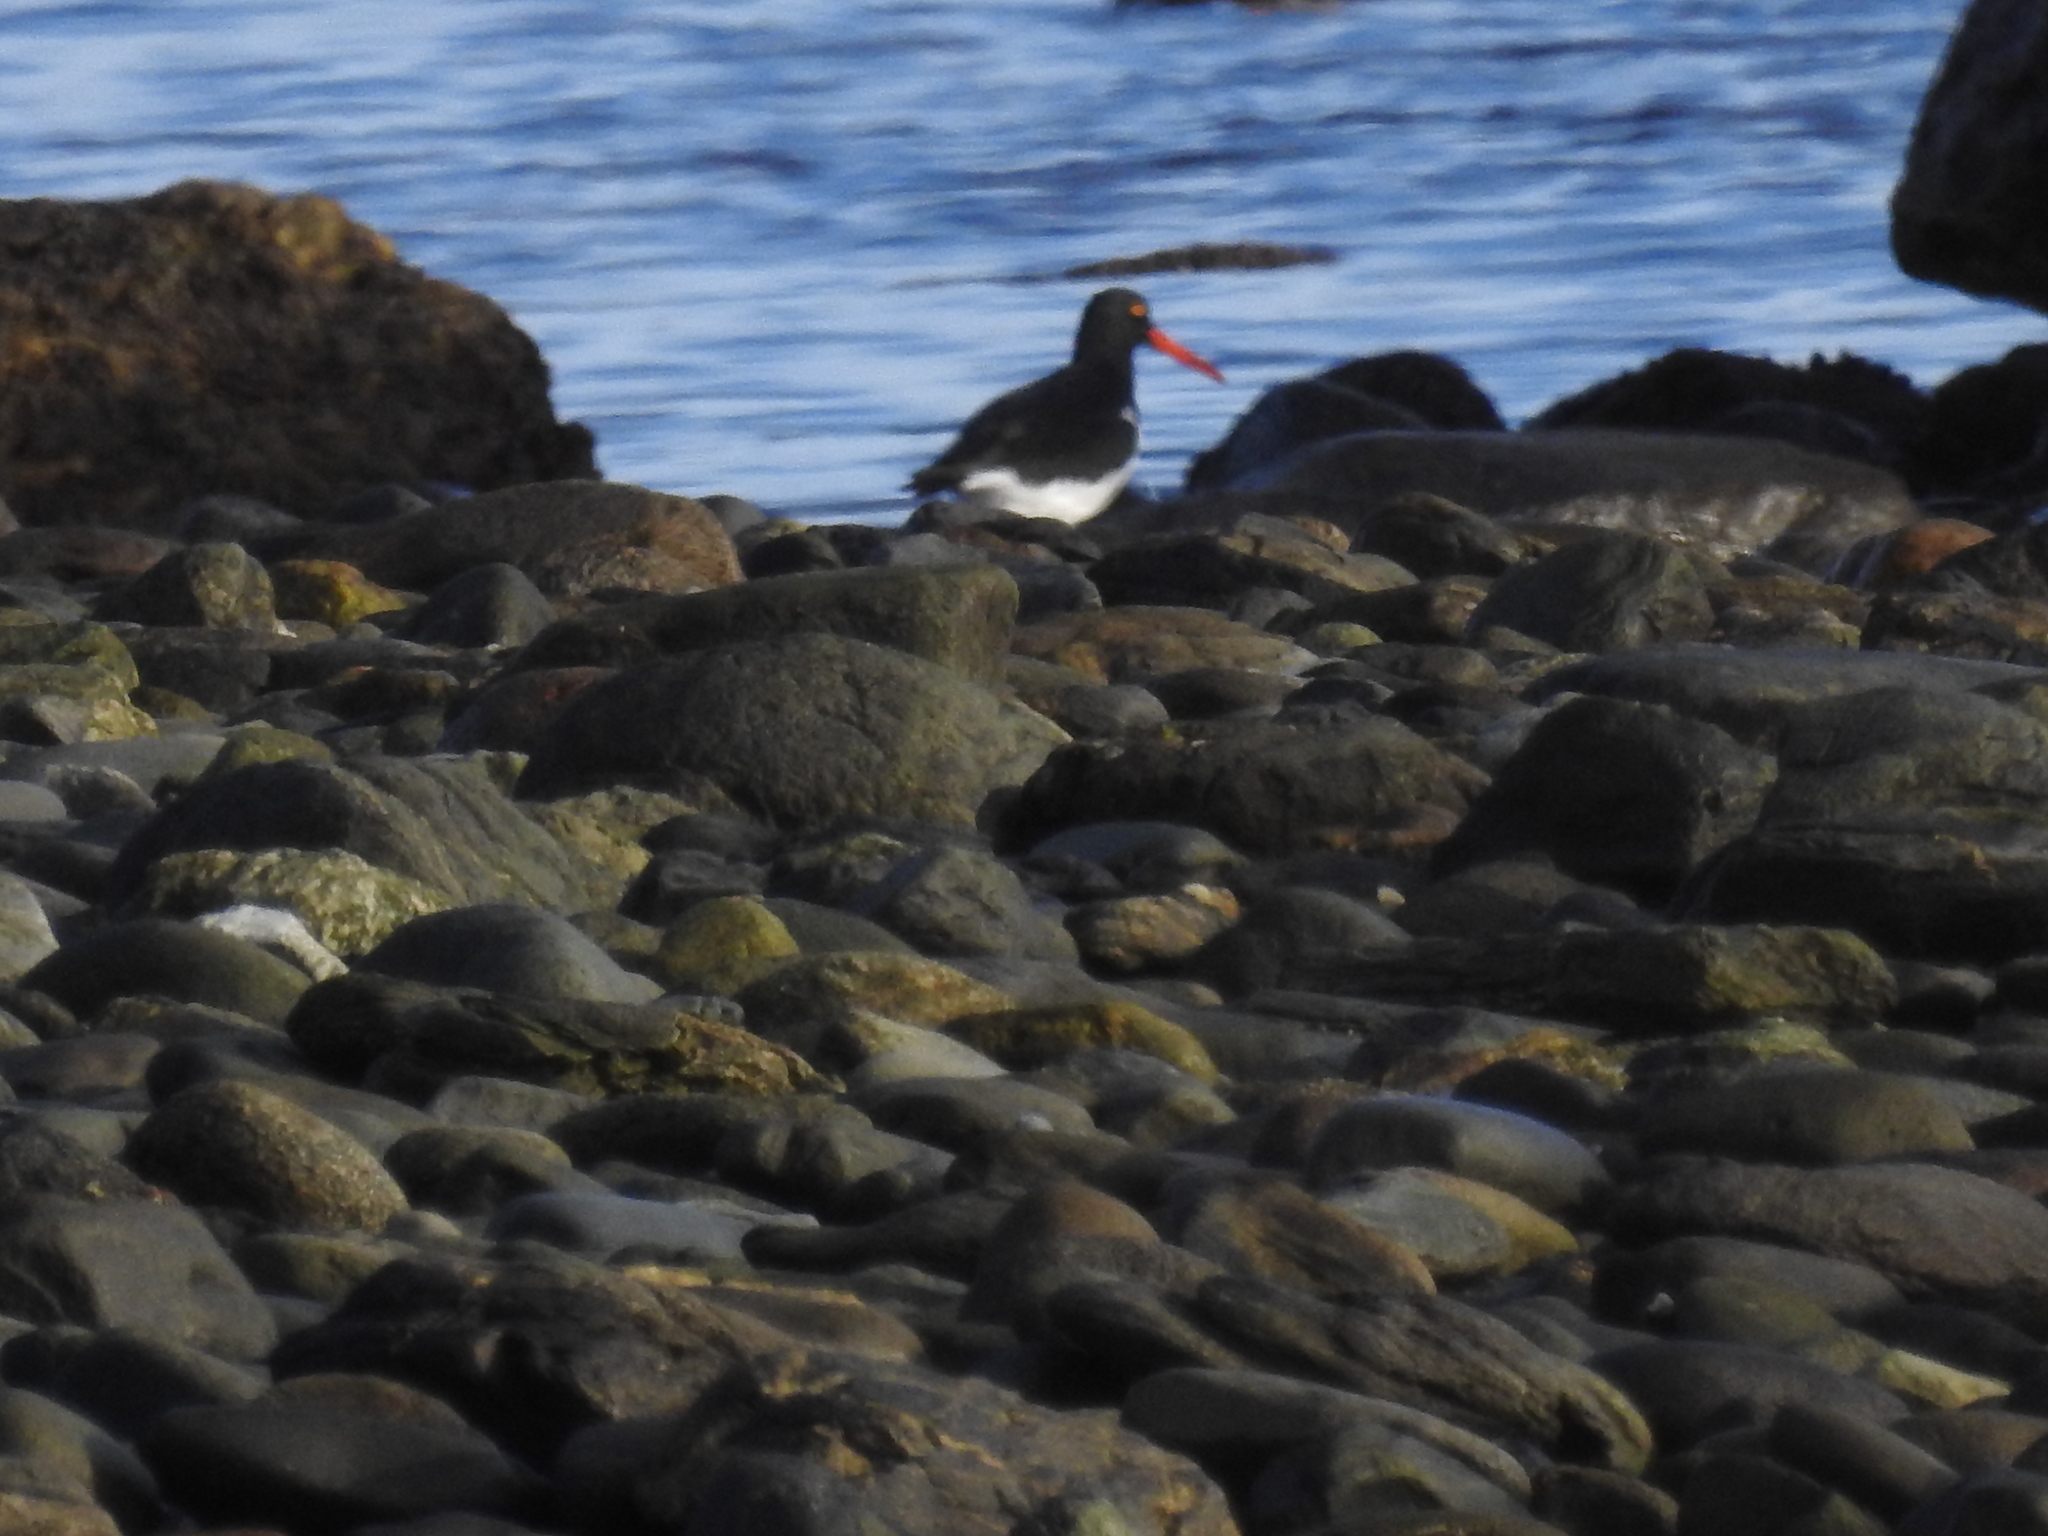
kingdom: Animalia
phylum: Chordata
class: Aves
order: Charadriiformes
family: Haematopodidae
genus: Haematopus
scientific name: Haematopus leucopodus
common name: Magellanic oystercatcher
